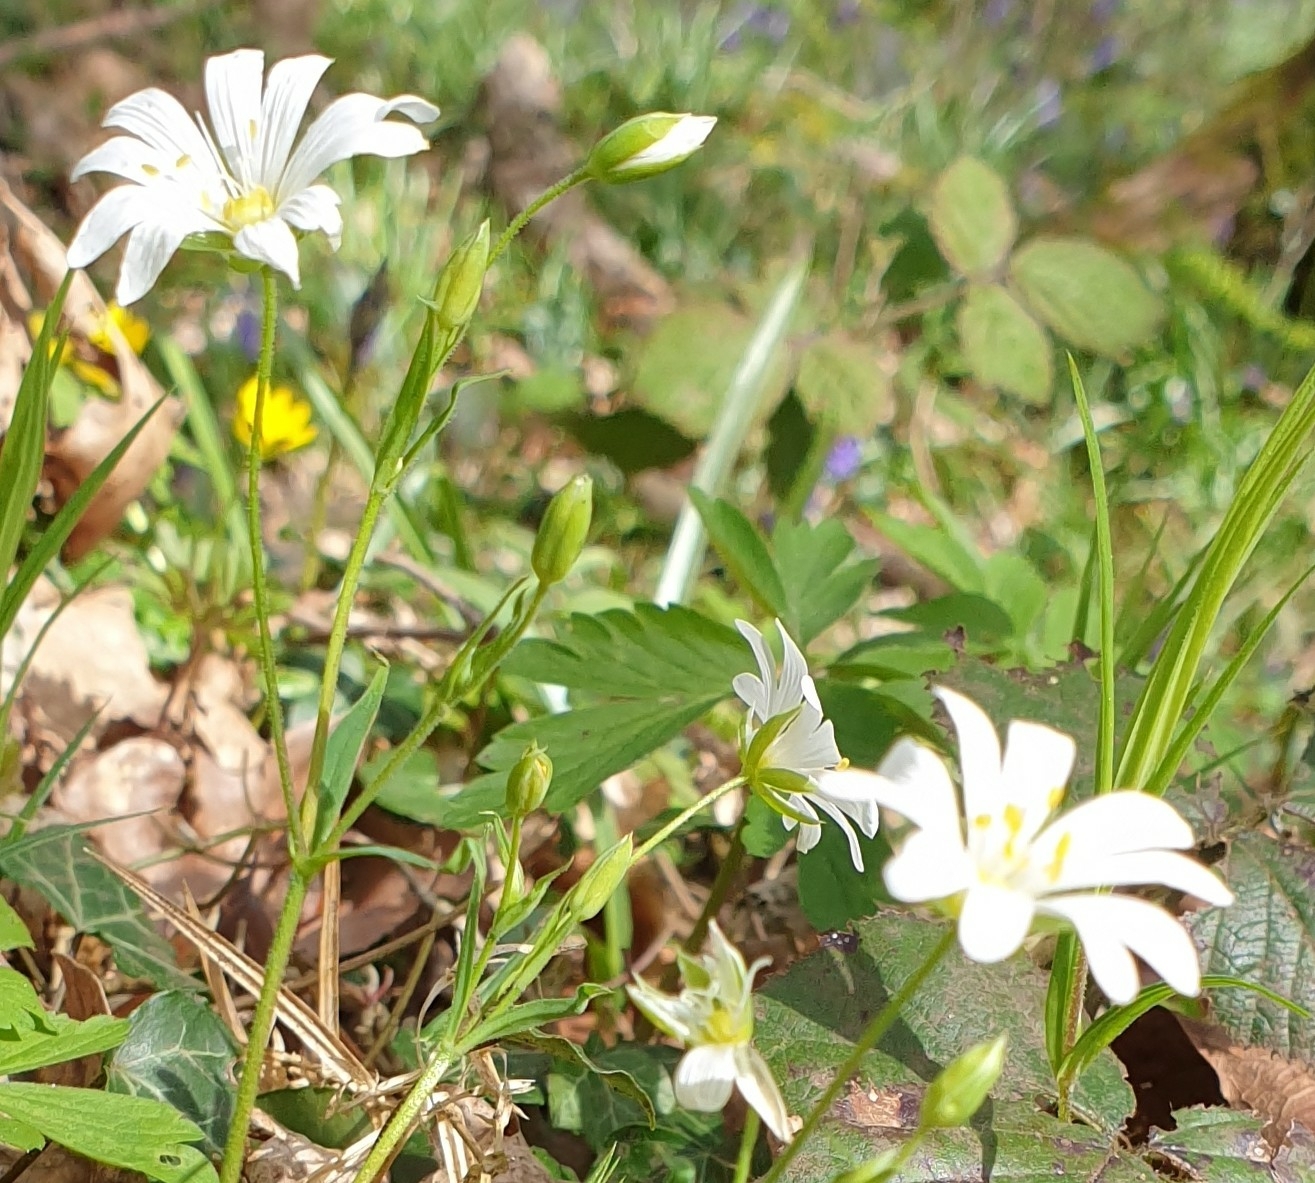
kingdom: Plantae
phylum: Tracheophyta
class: Magnoliopsida
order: Caryophyllales
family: Caryophyllaceae
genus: Rabelera
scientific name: Rabelera holostea
